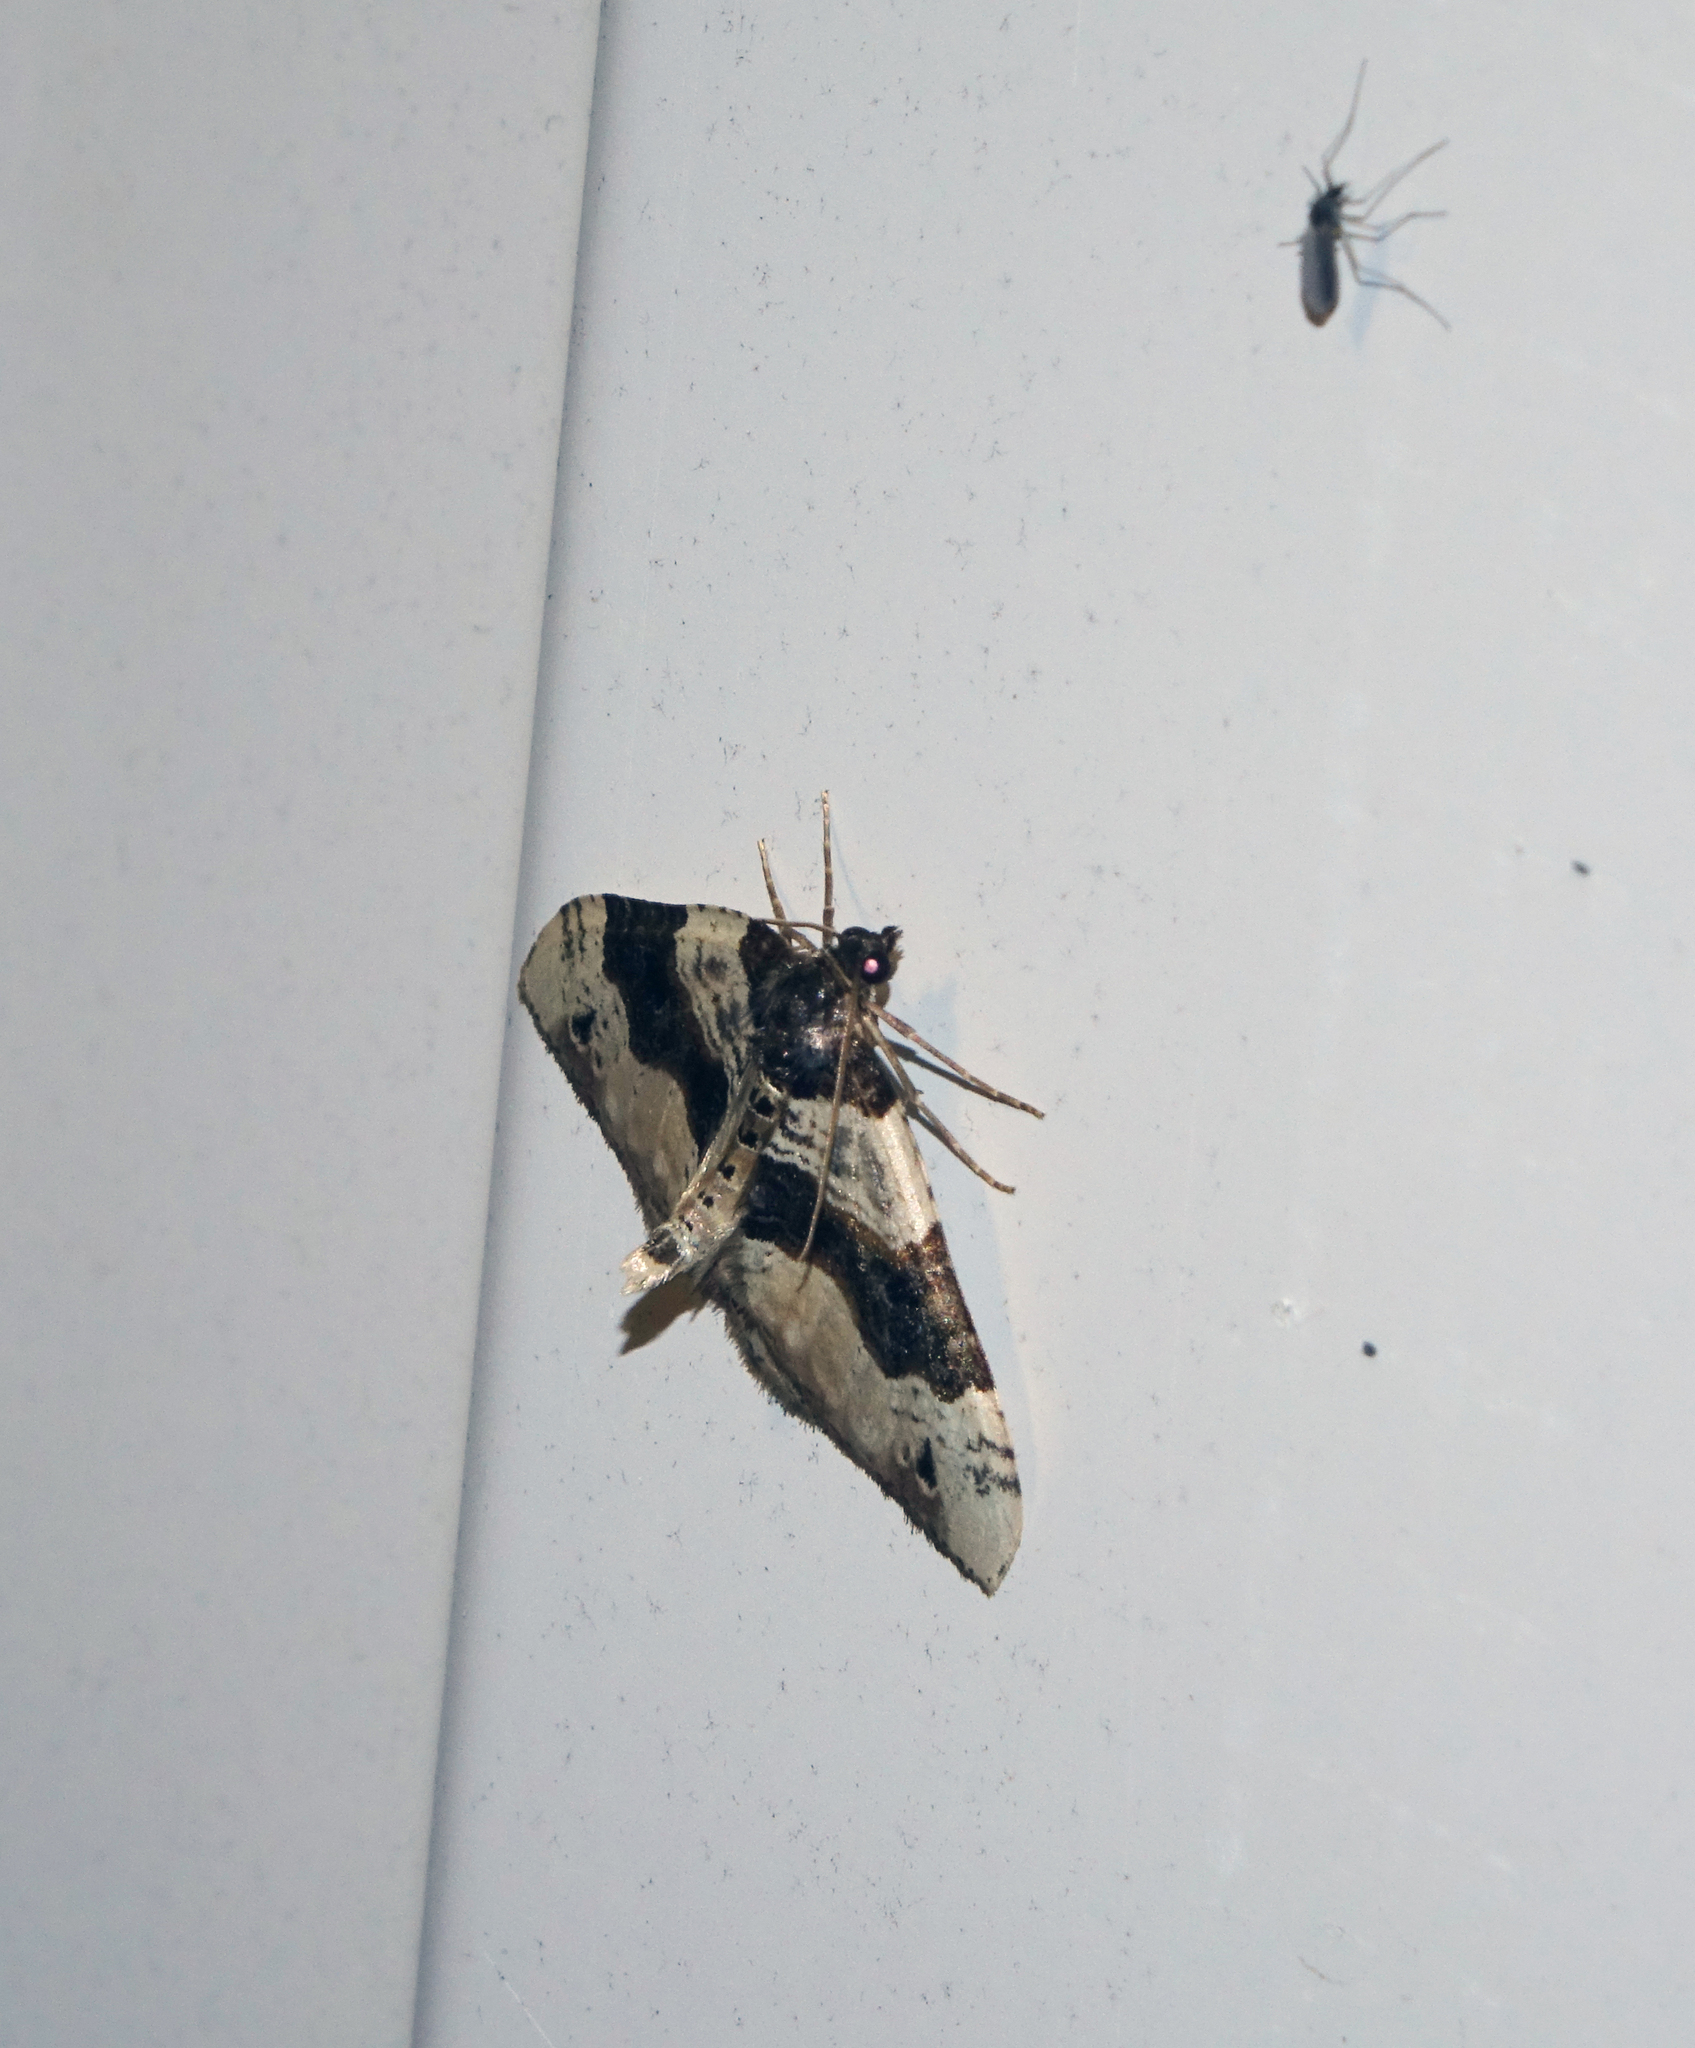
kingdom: Animalia
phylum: Arthropoda
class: Insecta
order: Lepidoptera
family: Geometridae
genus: Cosmorhoe
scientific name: Cosmorhoe ocellata
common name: Purple bar
